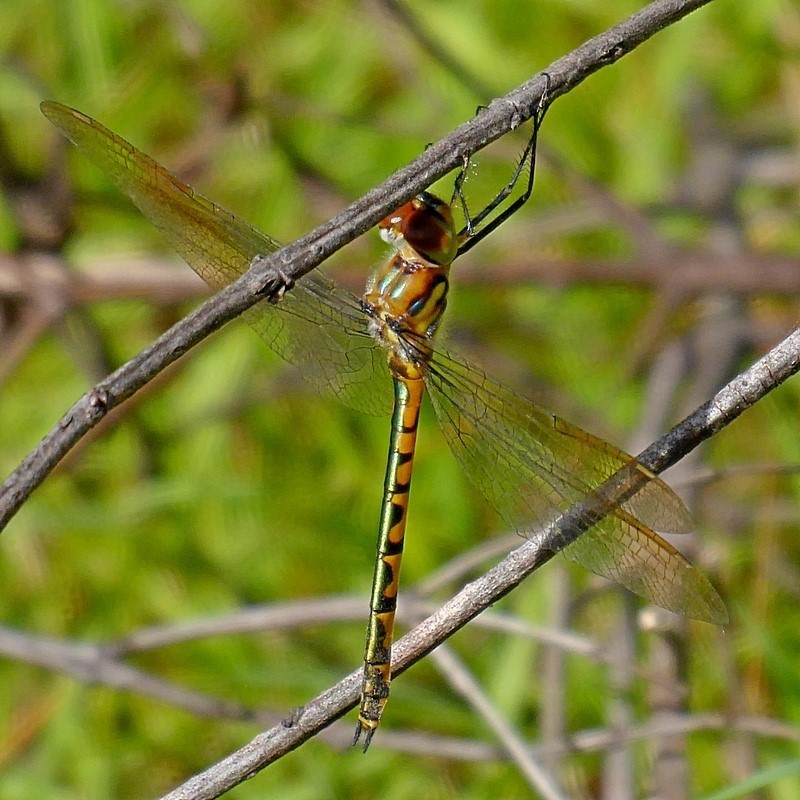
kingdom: Animalia
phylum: Arthropoda
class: Insecta
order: Odonata
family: Corduliidae
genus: Hemicordulia
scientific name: Hemicordulia australiae
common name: Sentry dragonfly
